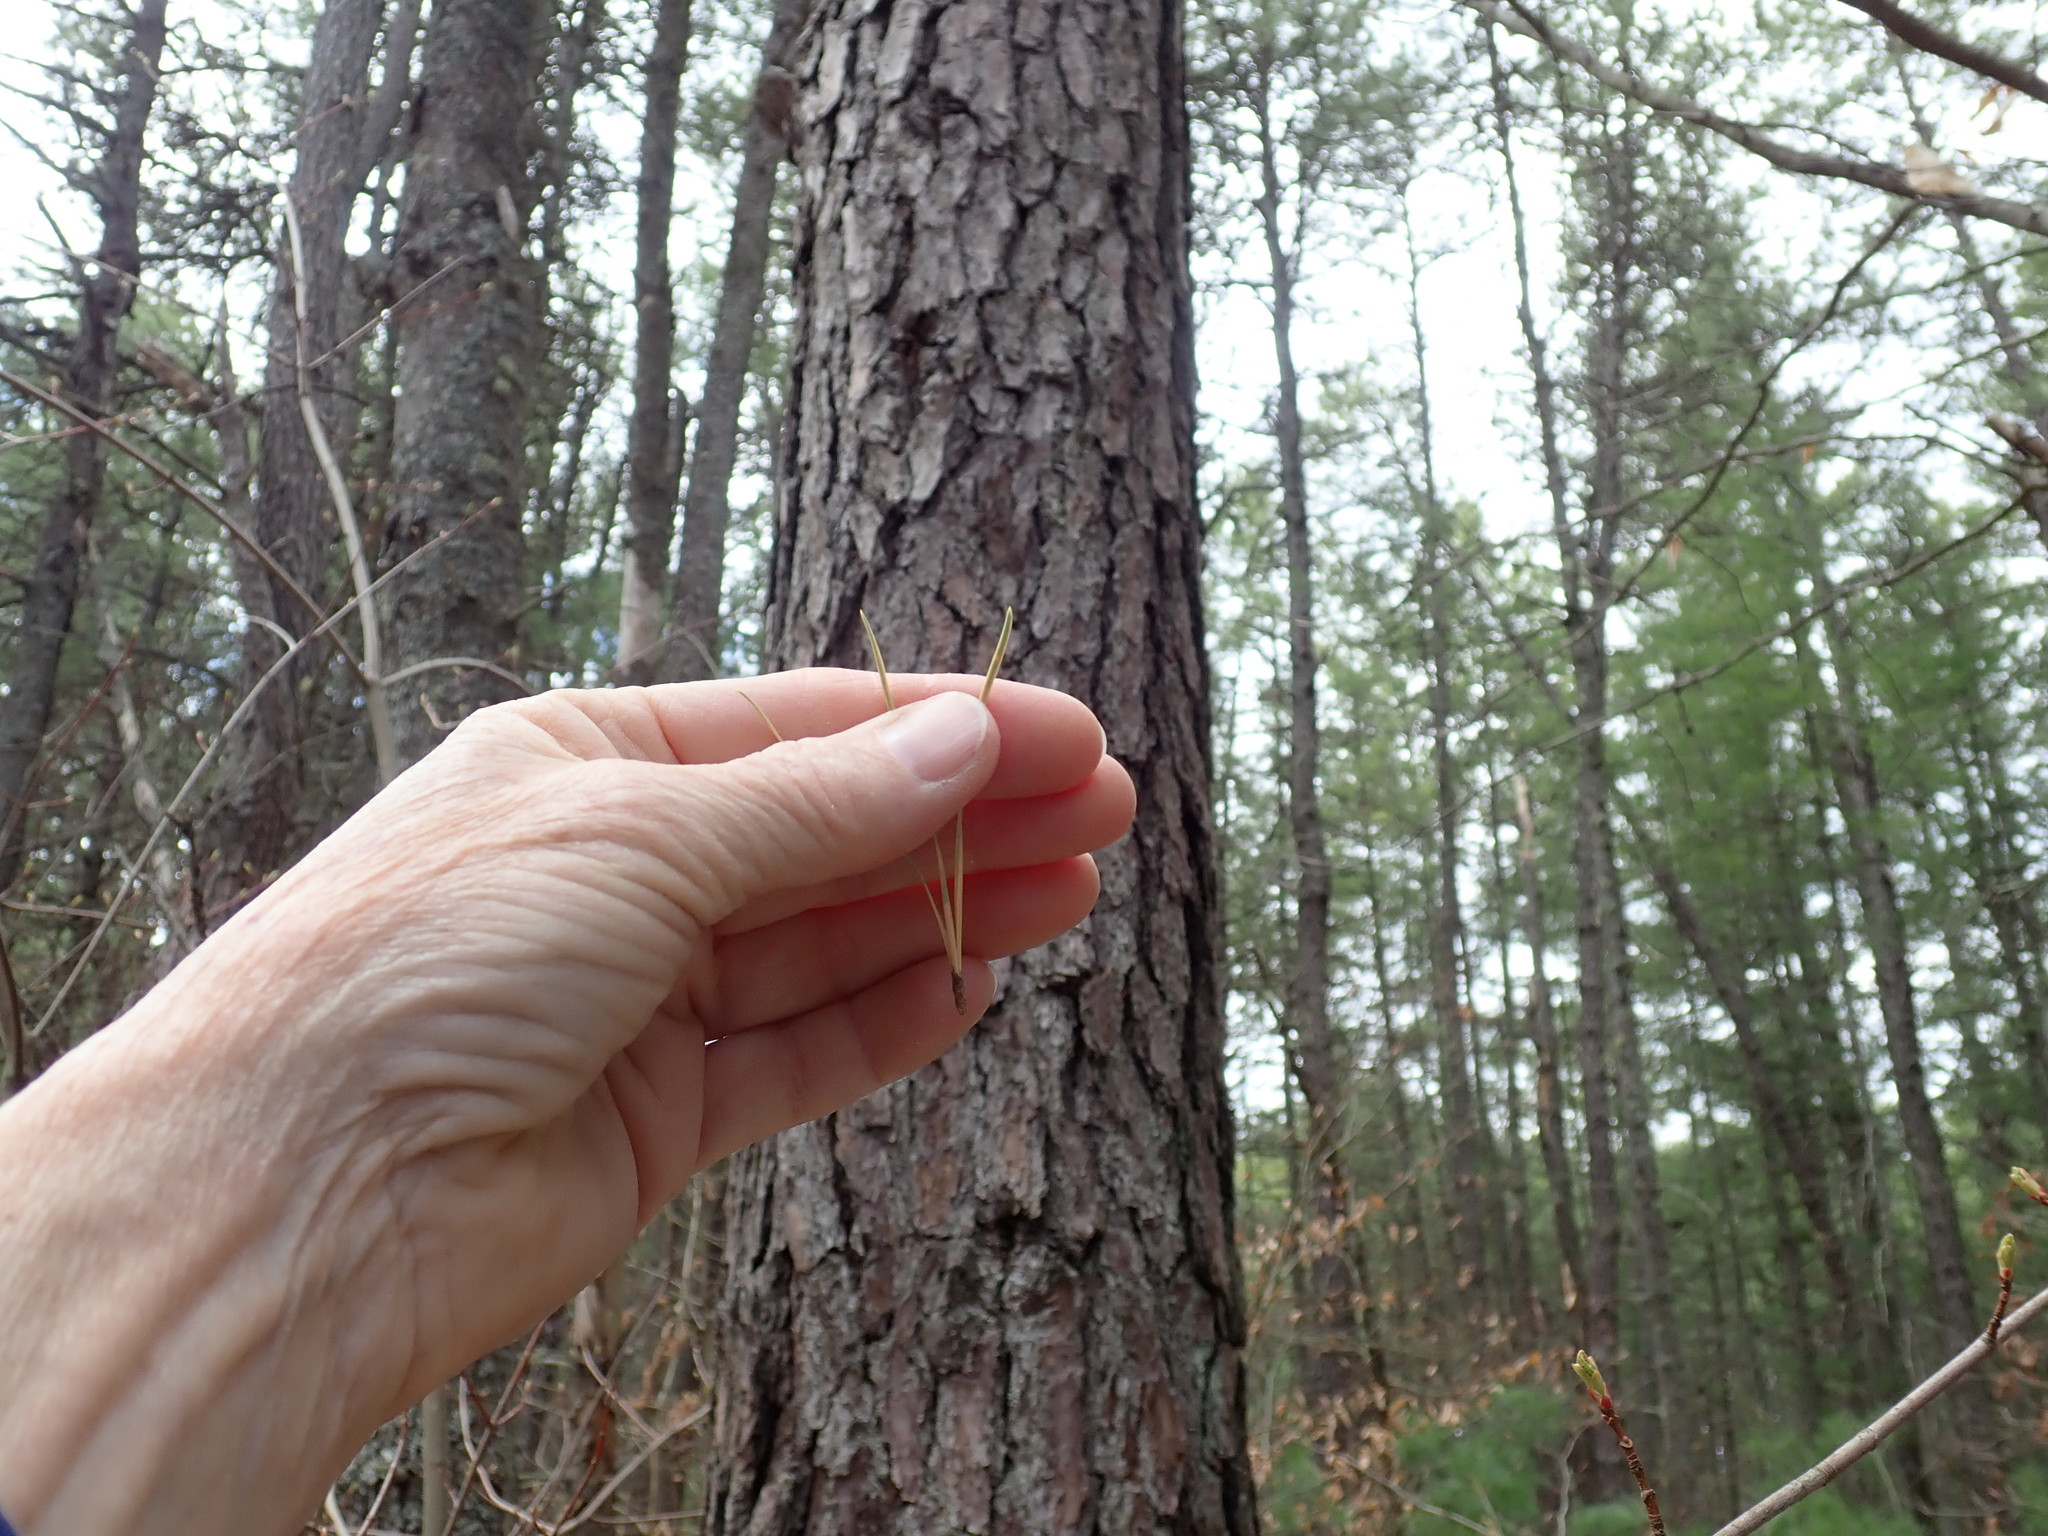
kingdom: Plantae
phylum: Tracheophyta
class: Pinopsida
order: Pinales
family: Pinaceae
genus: Pinus
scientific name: Pinus rigida
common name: Pitch pine
